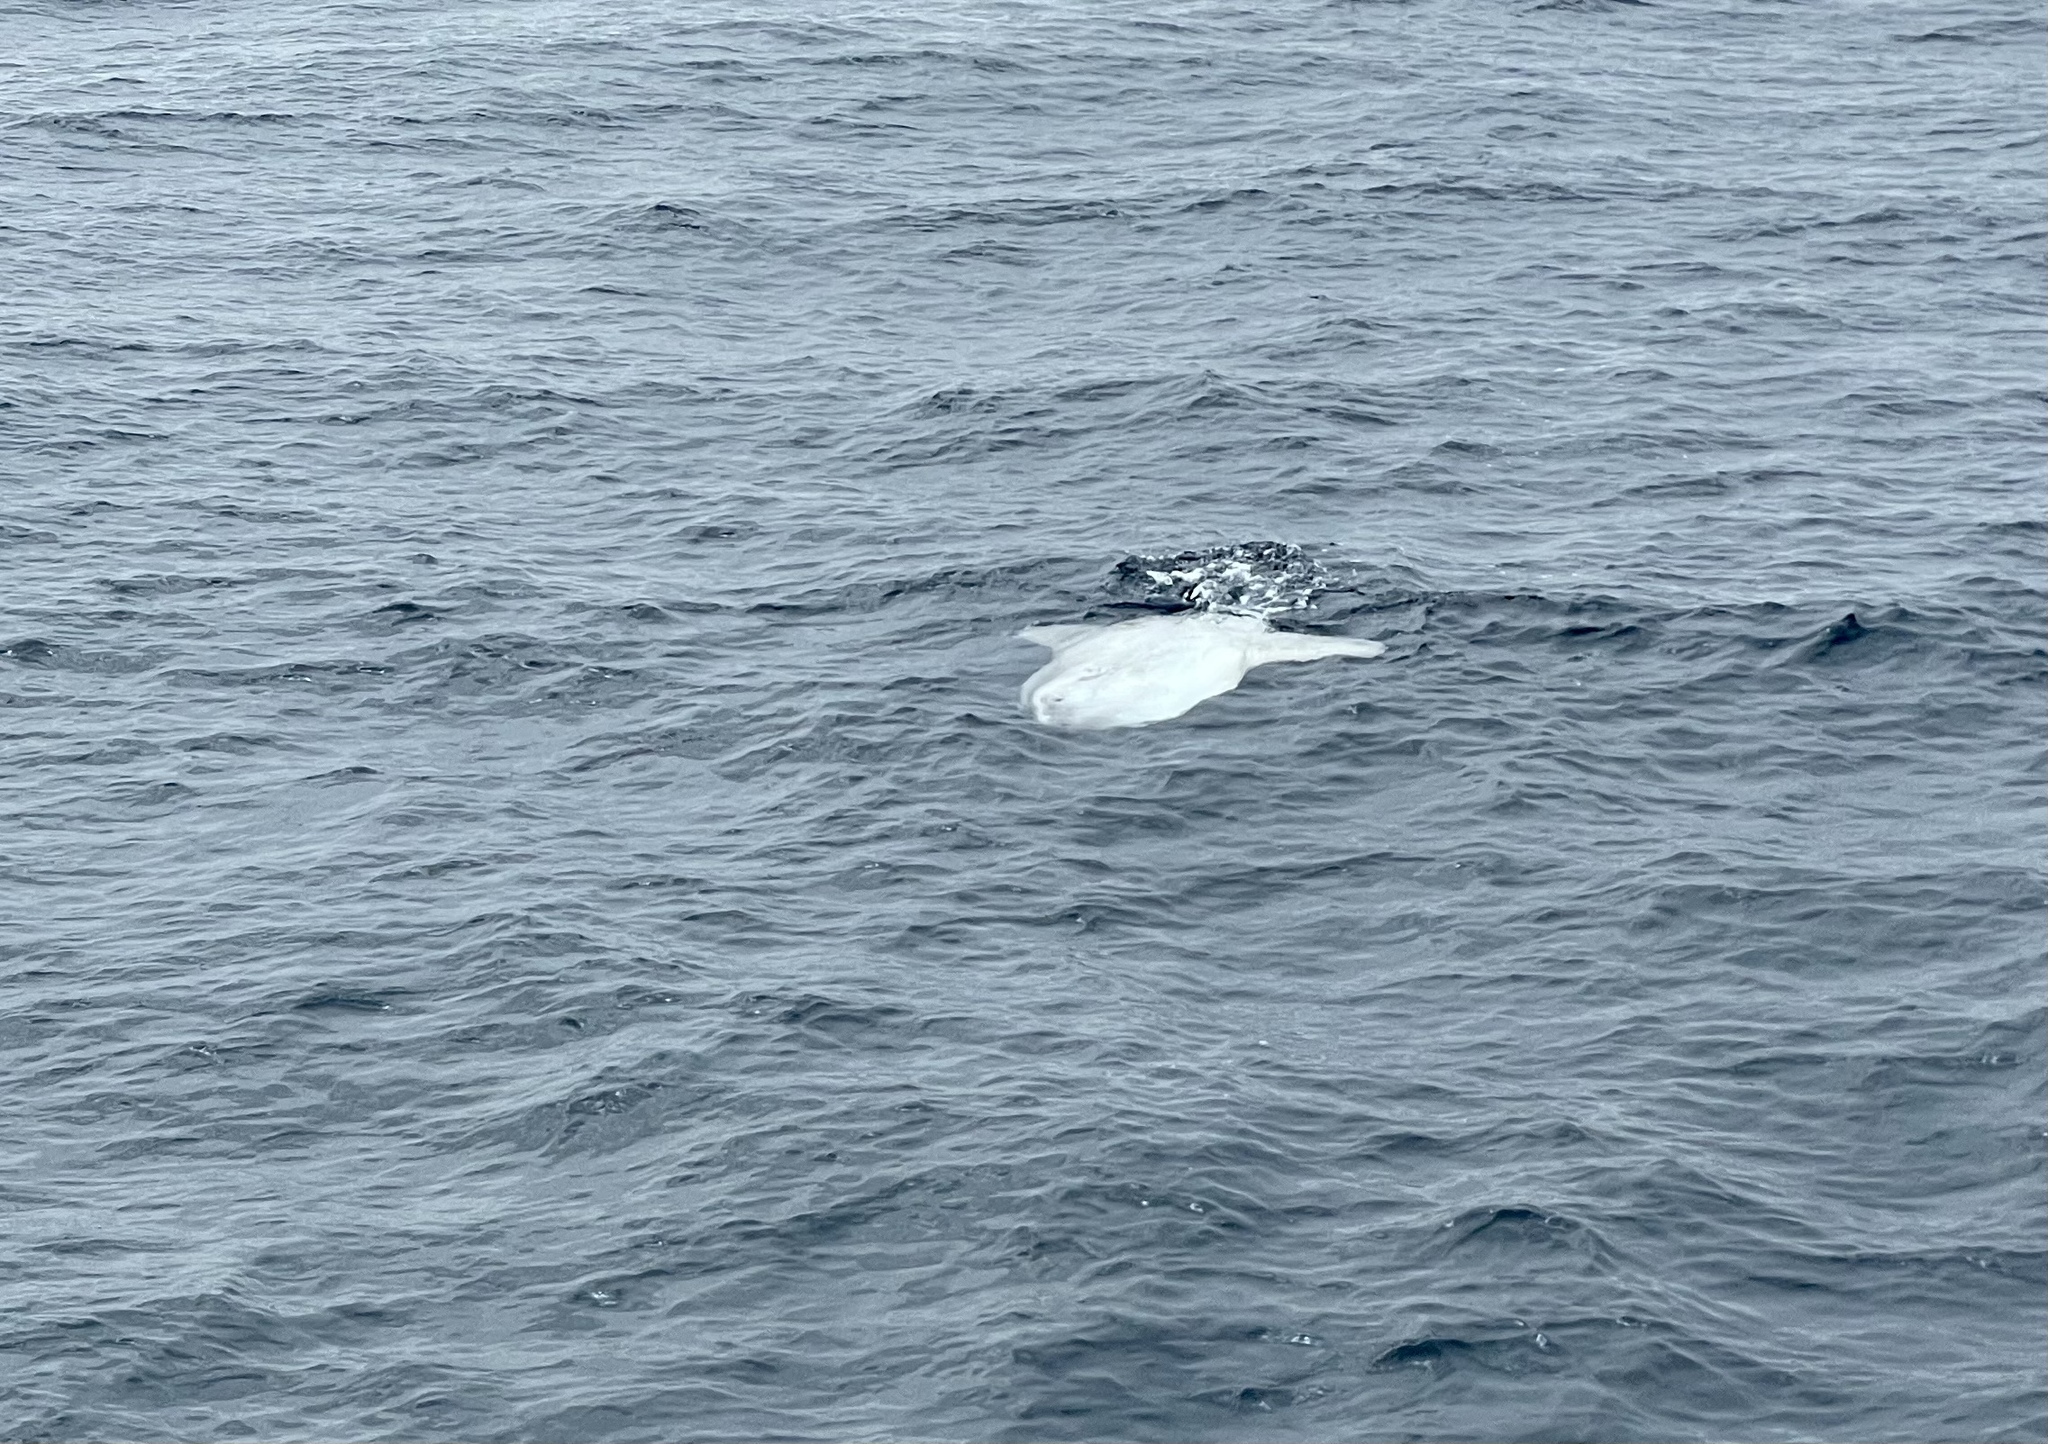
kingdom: Animalia
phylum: Chordata
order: Tetraodontiformes
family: Molidae
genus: Mola
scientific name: Mola mola
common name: Ocean sunfish
